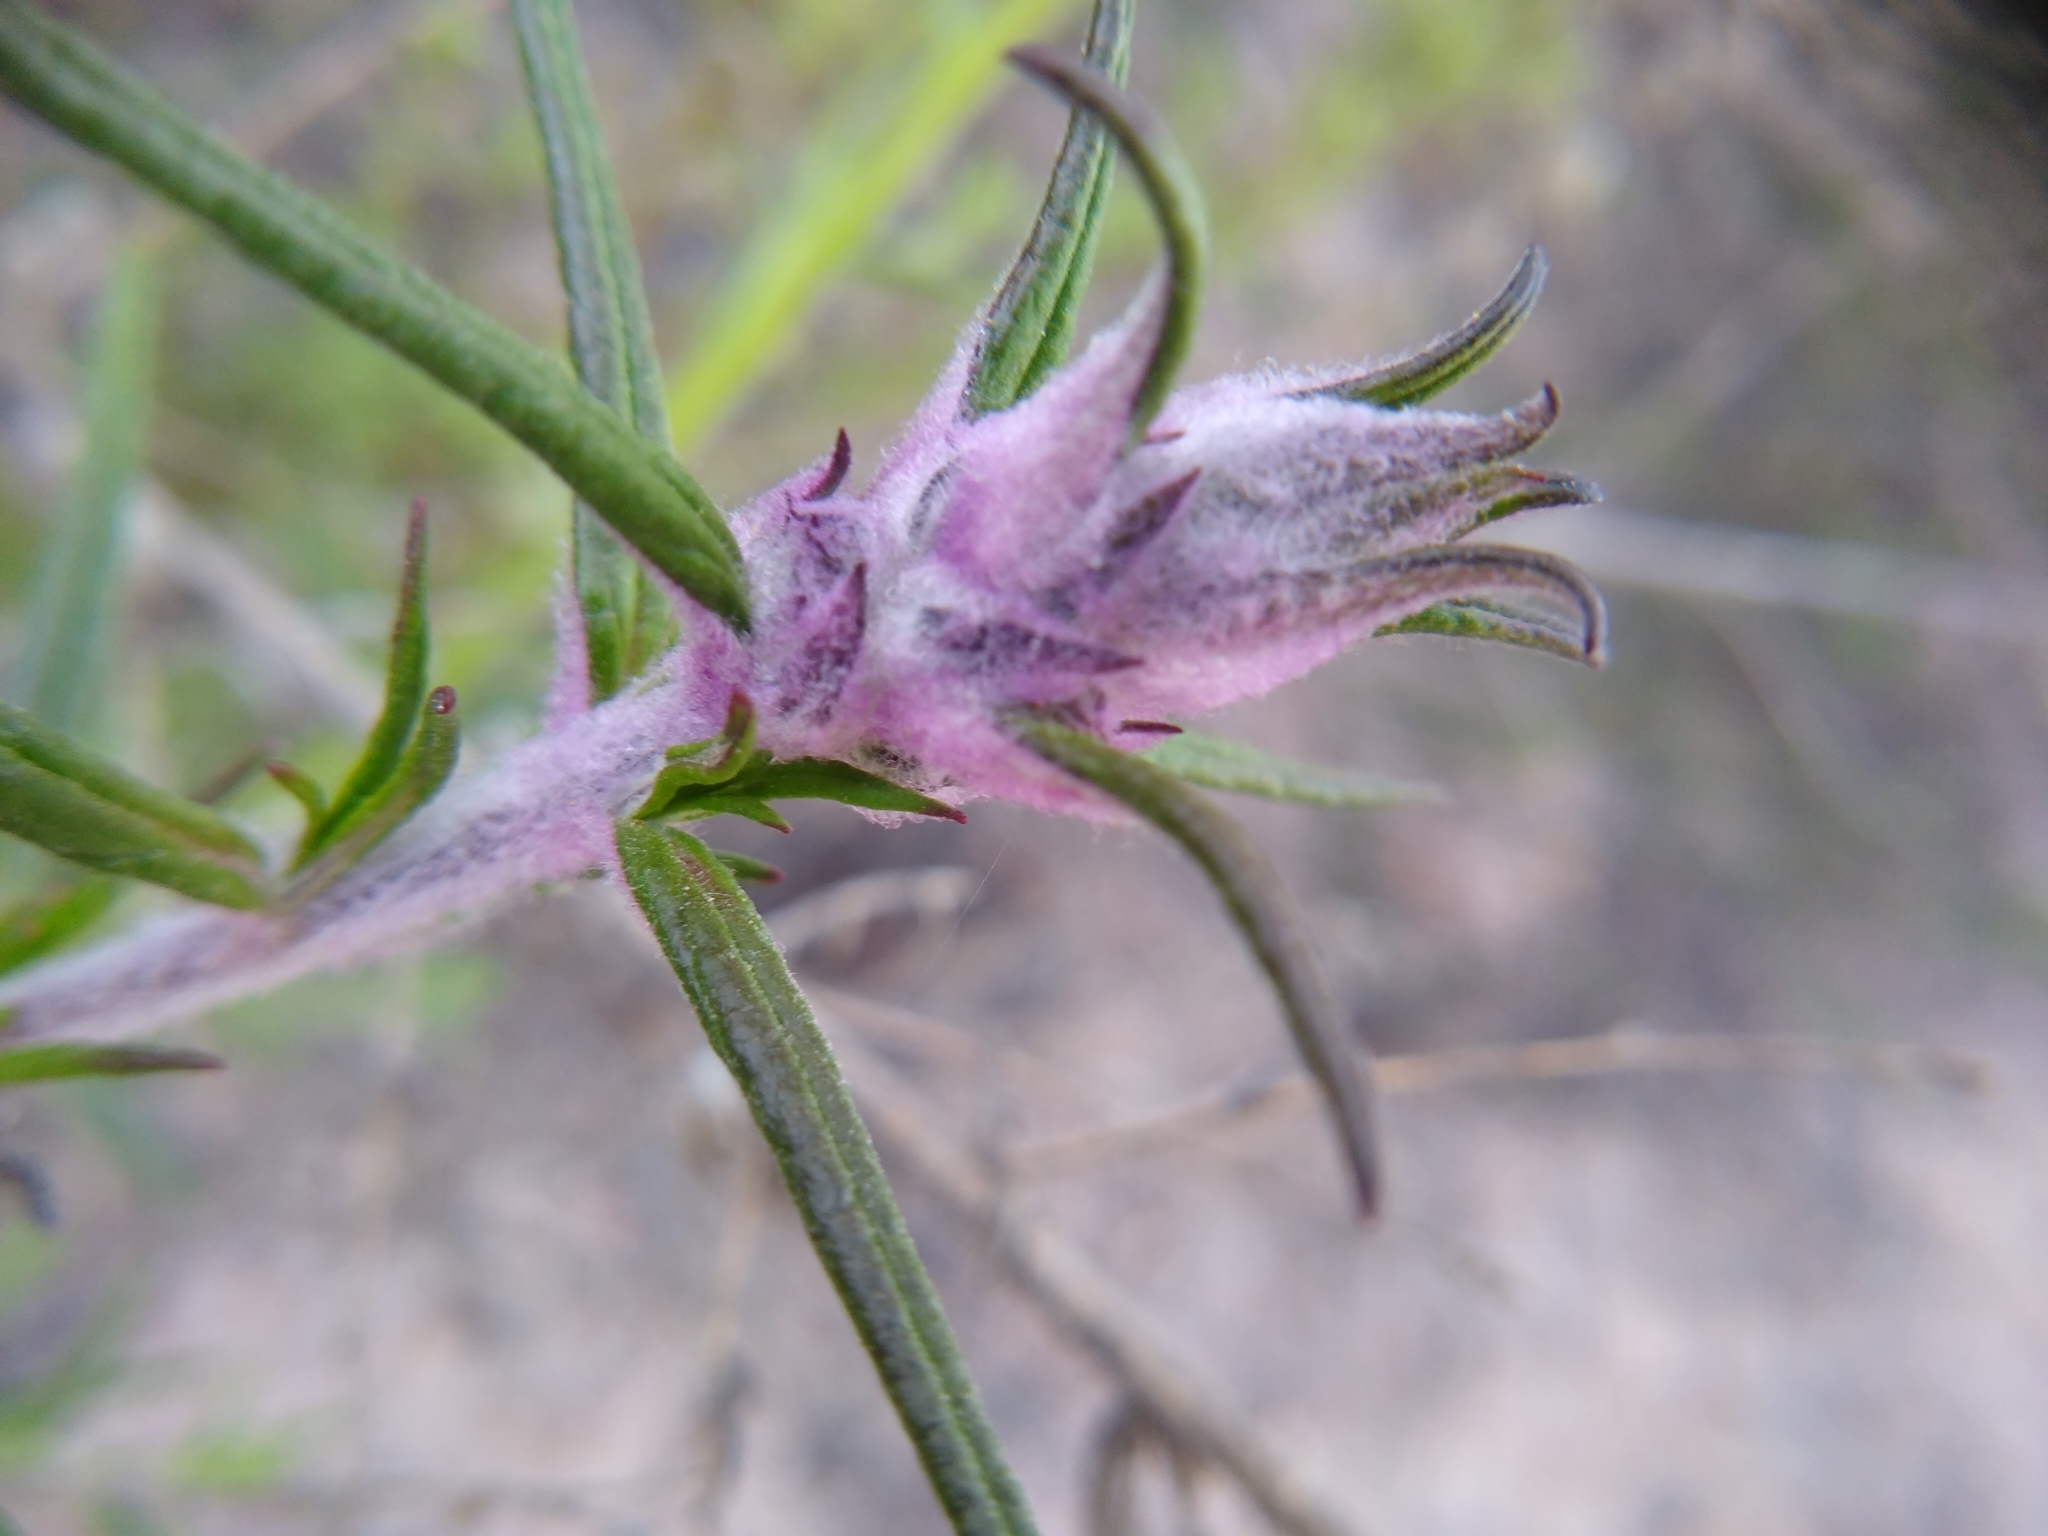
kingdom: Plantae
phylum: Tracheophyta
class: Magnoliopsida
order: Lamiales
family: Lamiaceae
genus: Trichostema
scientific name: Trichostema lanatum
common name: Woolly bluecurls
